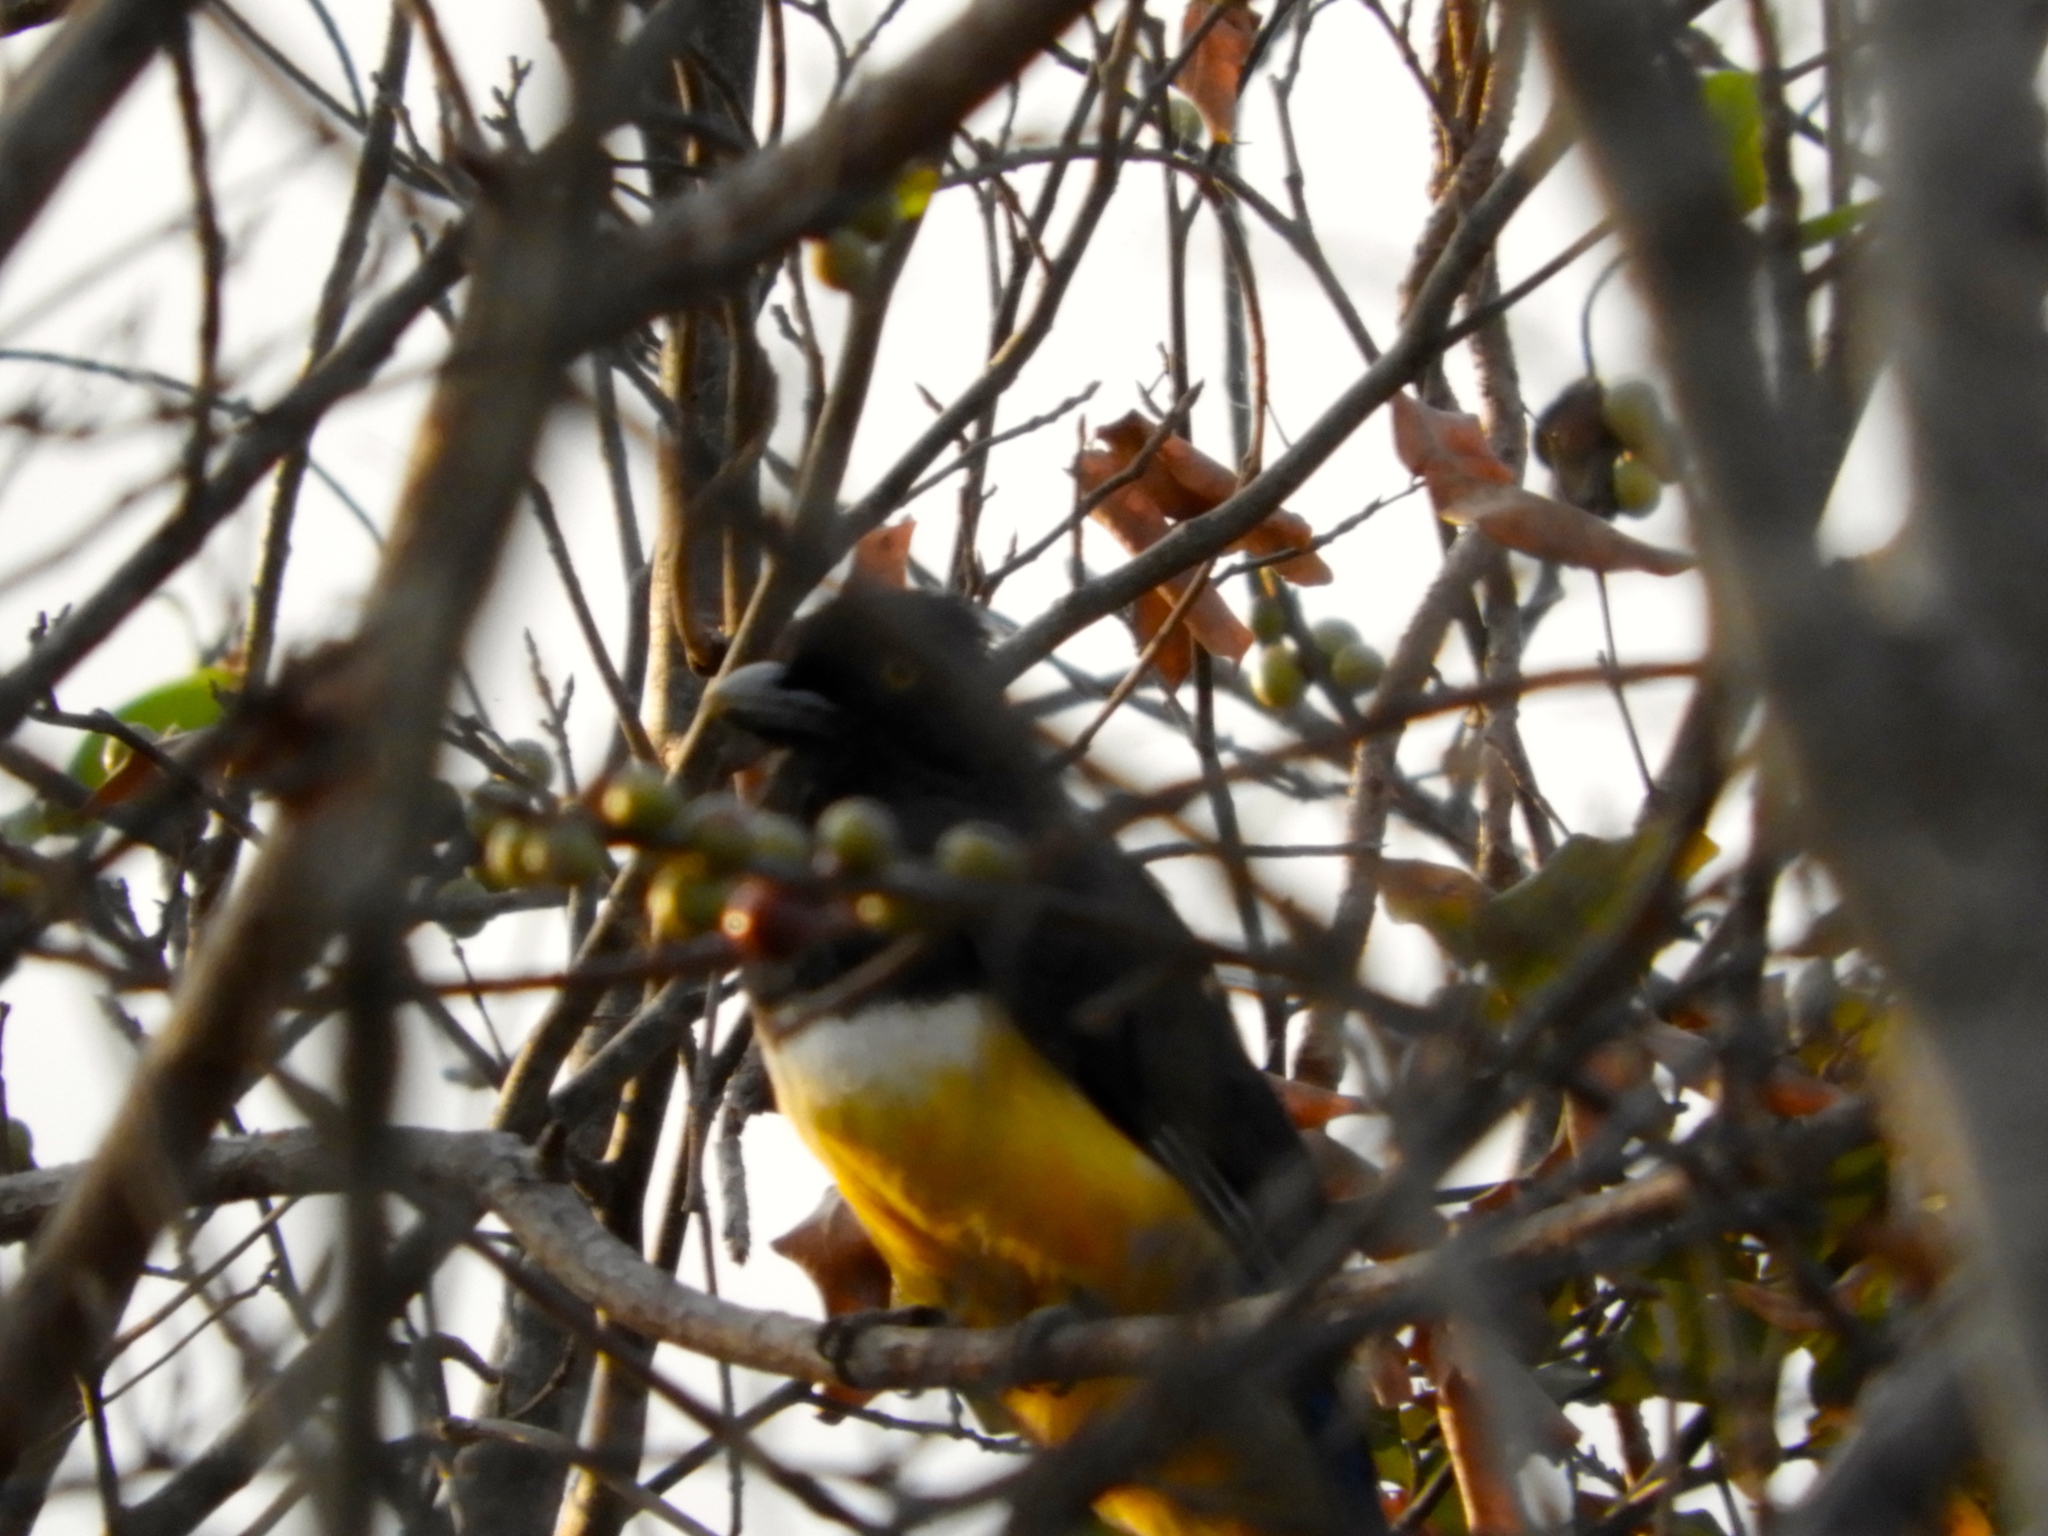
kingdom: Animalia
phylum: Chordata
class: Aves
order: Trogoniformes
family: Trogonidae
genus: Trogon
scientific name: Trogon citreolus
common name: Citreoline trogon
